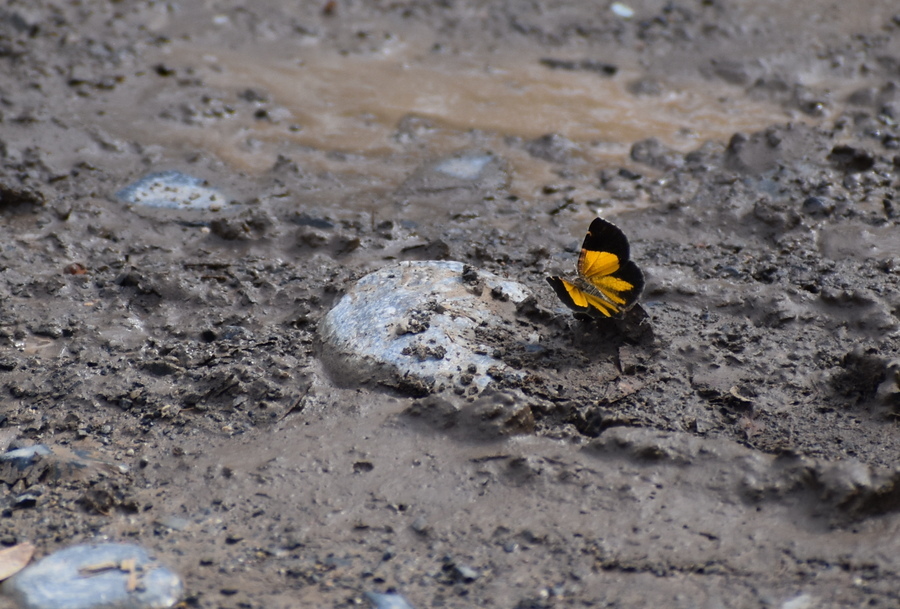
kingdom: Animalia
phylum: Arthropoda
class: Insecta
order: Lepidoptera
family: Geometridae
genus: Heterusia
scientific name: Heterusia atalantata
